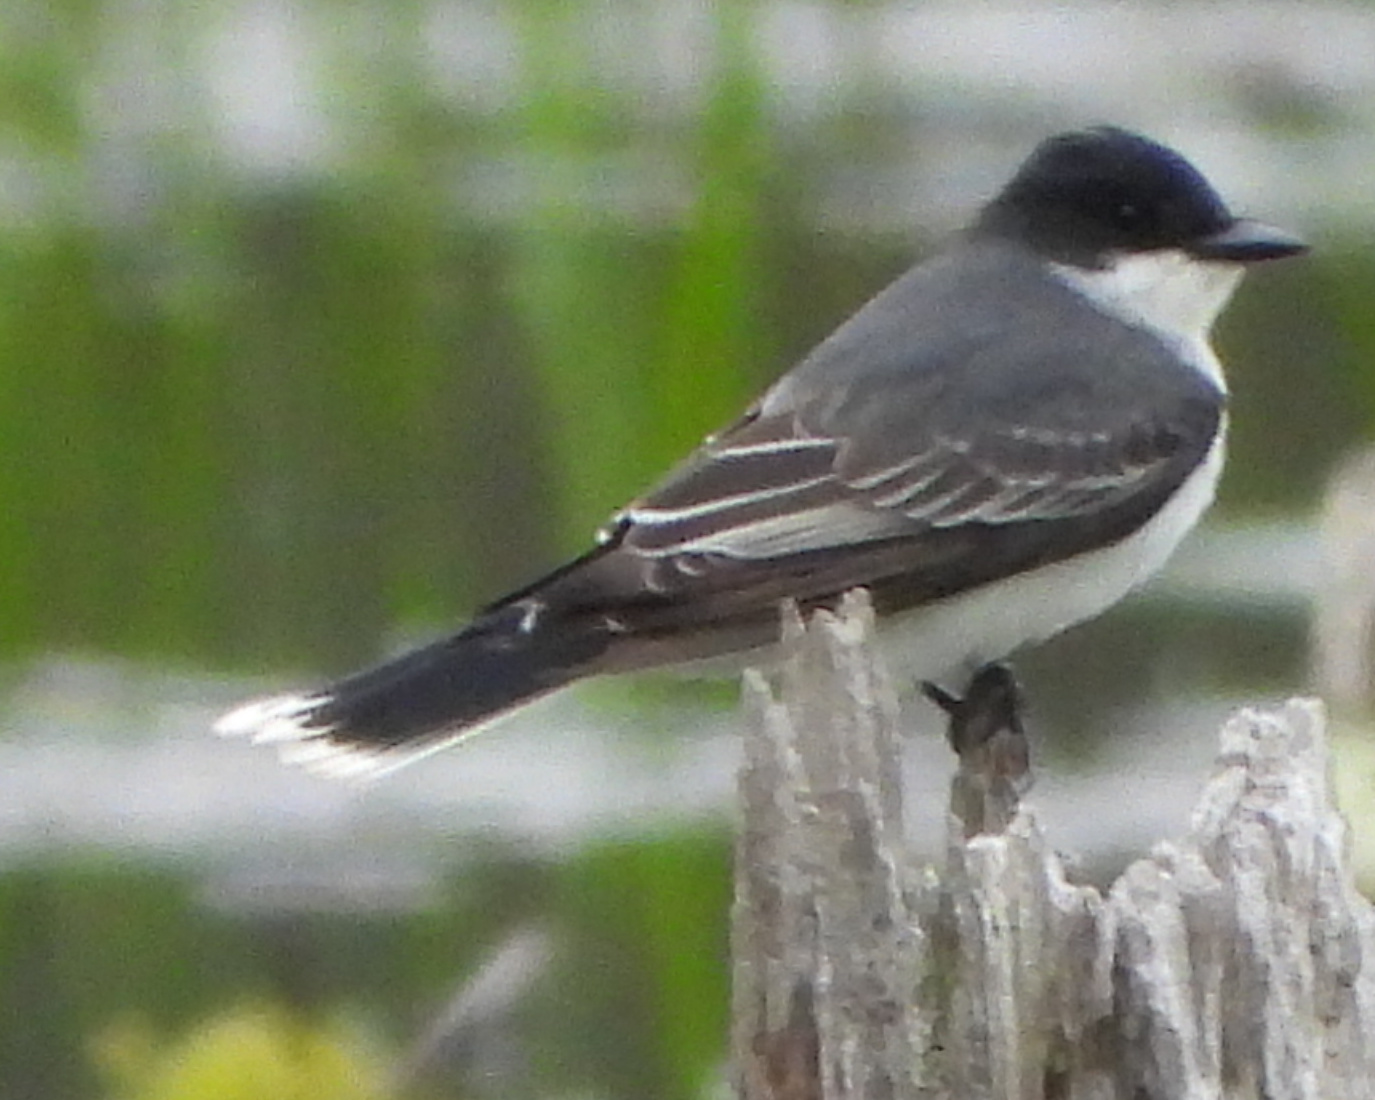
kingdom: Animalia
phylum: Chordata
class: Aves
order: Passeriformes
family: Tyrannidae
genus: Tyrannus
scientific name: Tyrannus tyrannus
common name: Eastern kingbird
